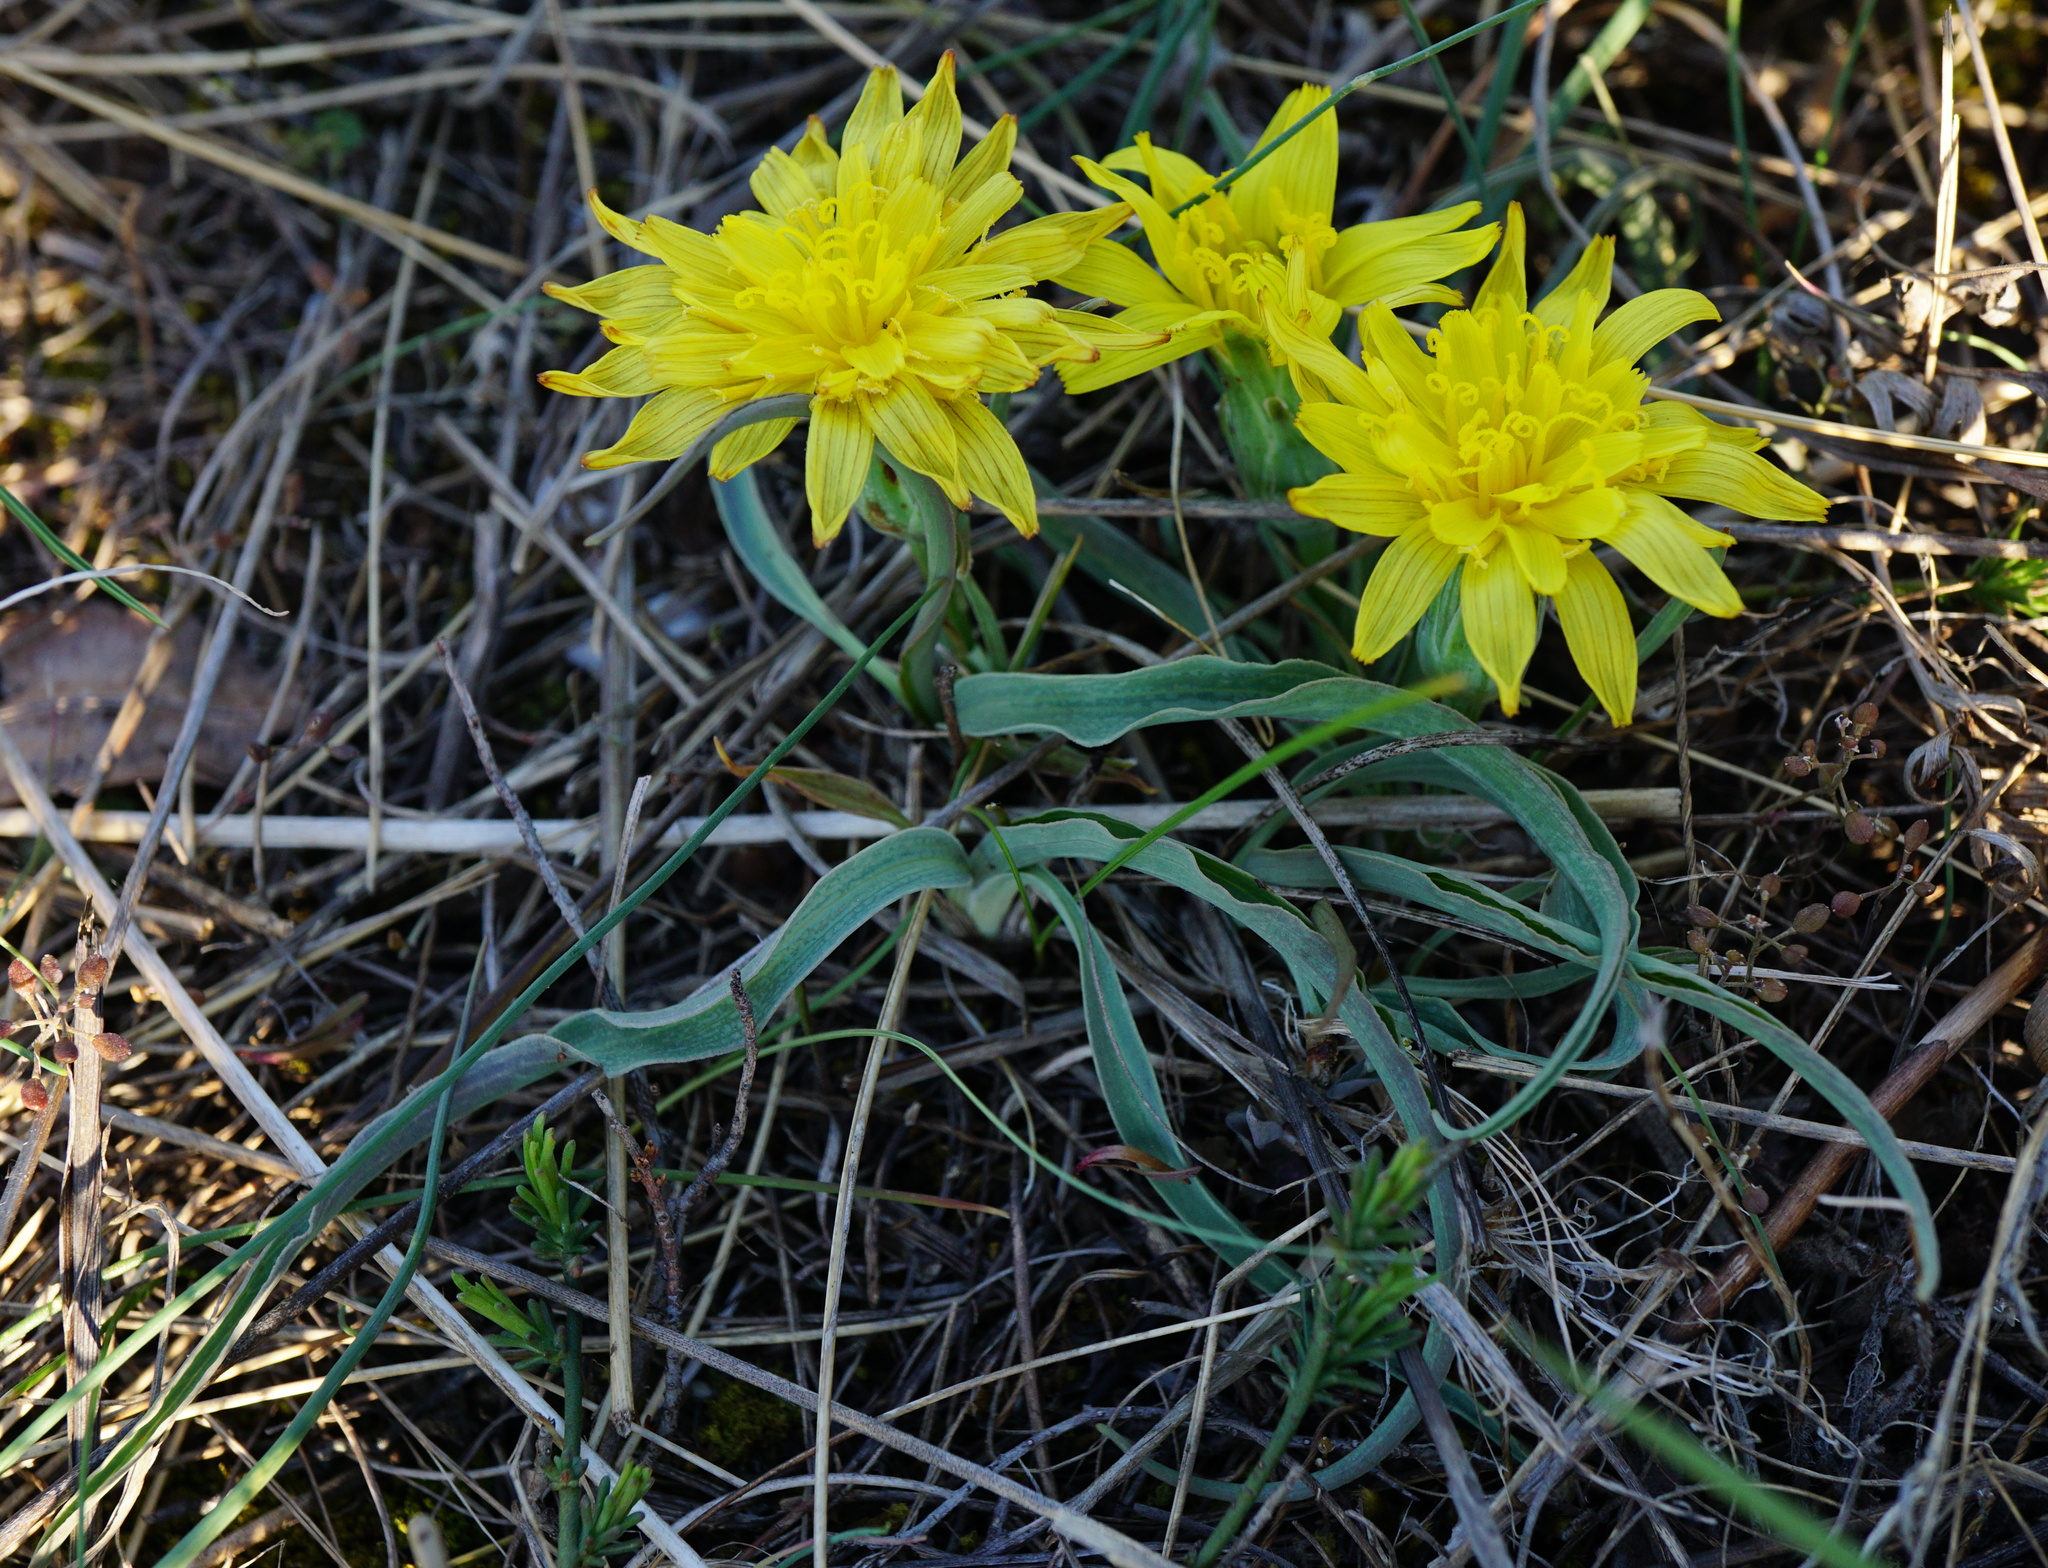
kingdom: Plantae
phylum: Tracheophyta
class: Magnoliopsida
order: Asterales
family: Asteraceae
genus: Takhtajaniantha
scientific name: Takhtajaniantha austriaca
